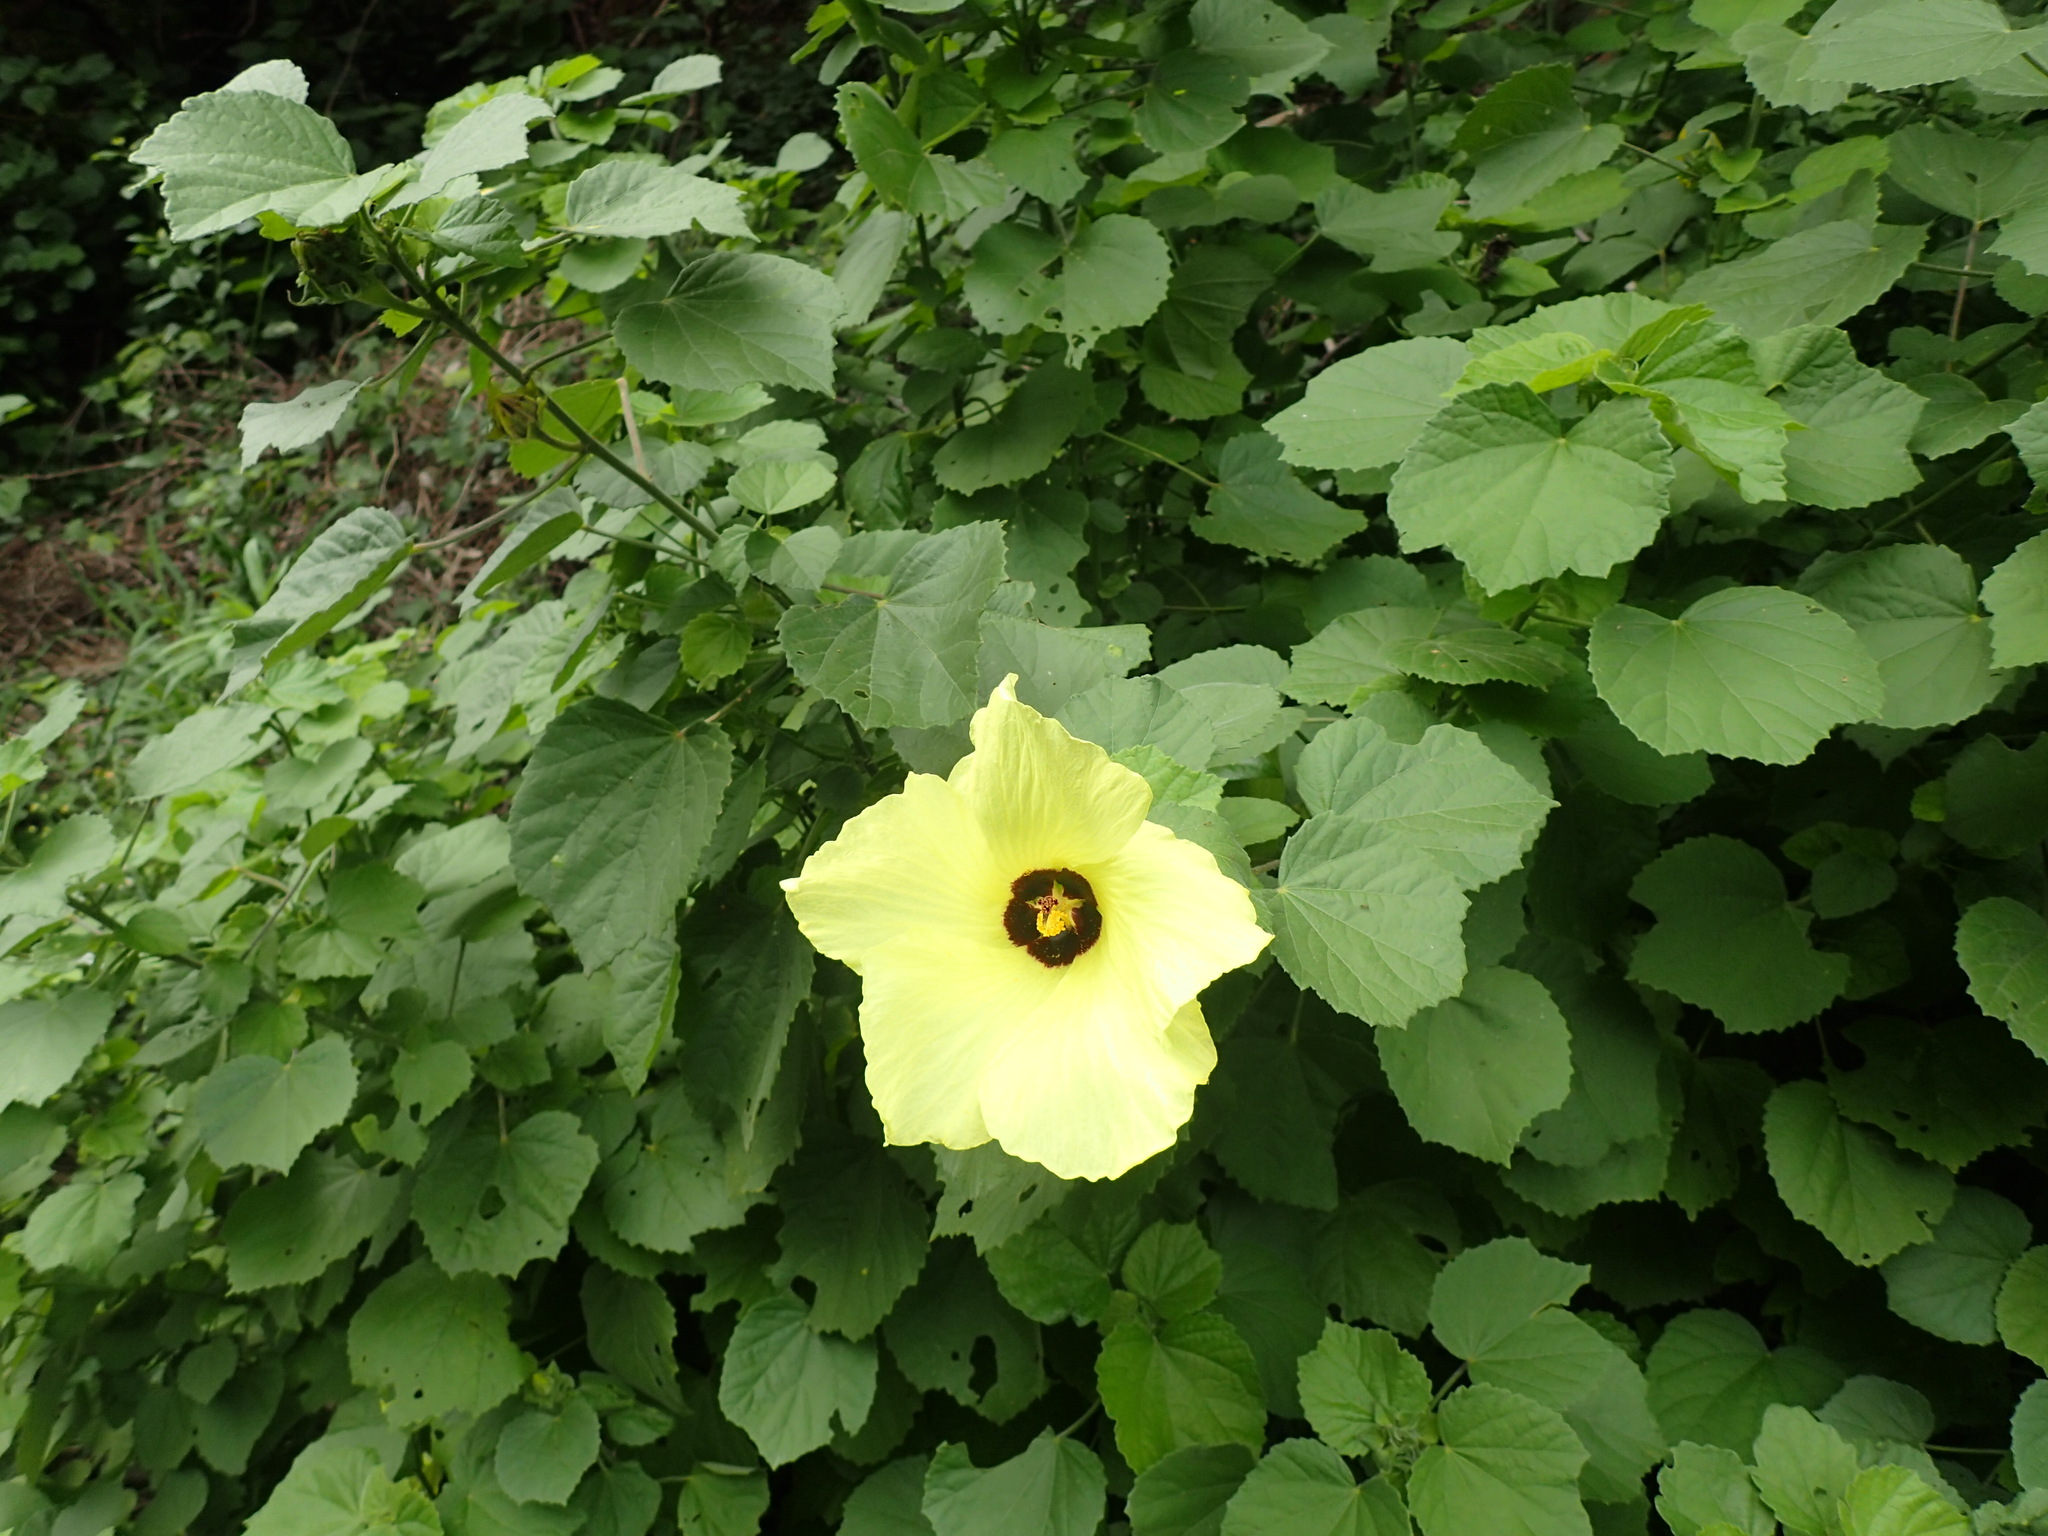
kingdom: Plantae
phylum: Tracheophyta
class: Magnoliopsida
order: Malvales
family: Malvaceae
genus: Hibiscus
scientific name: Hibiscus calyphyllus
